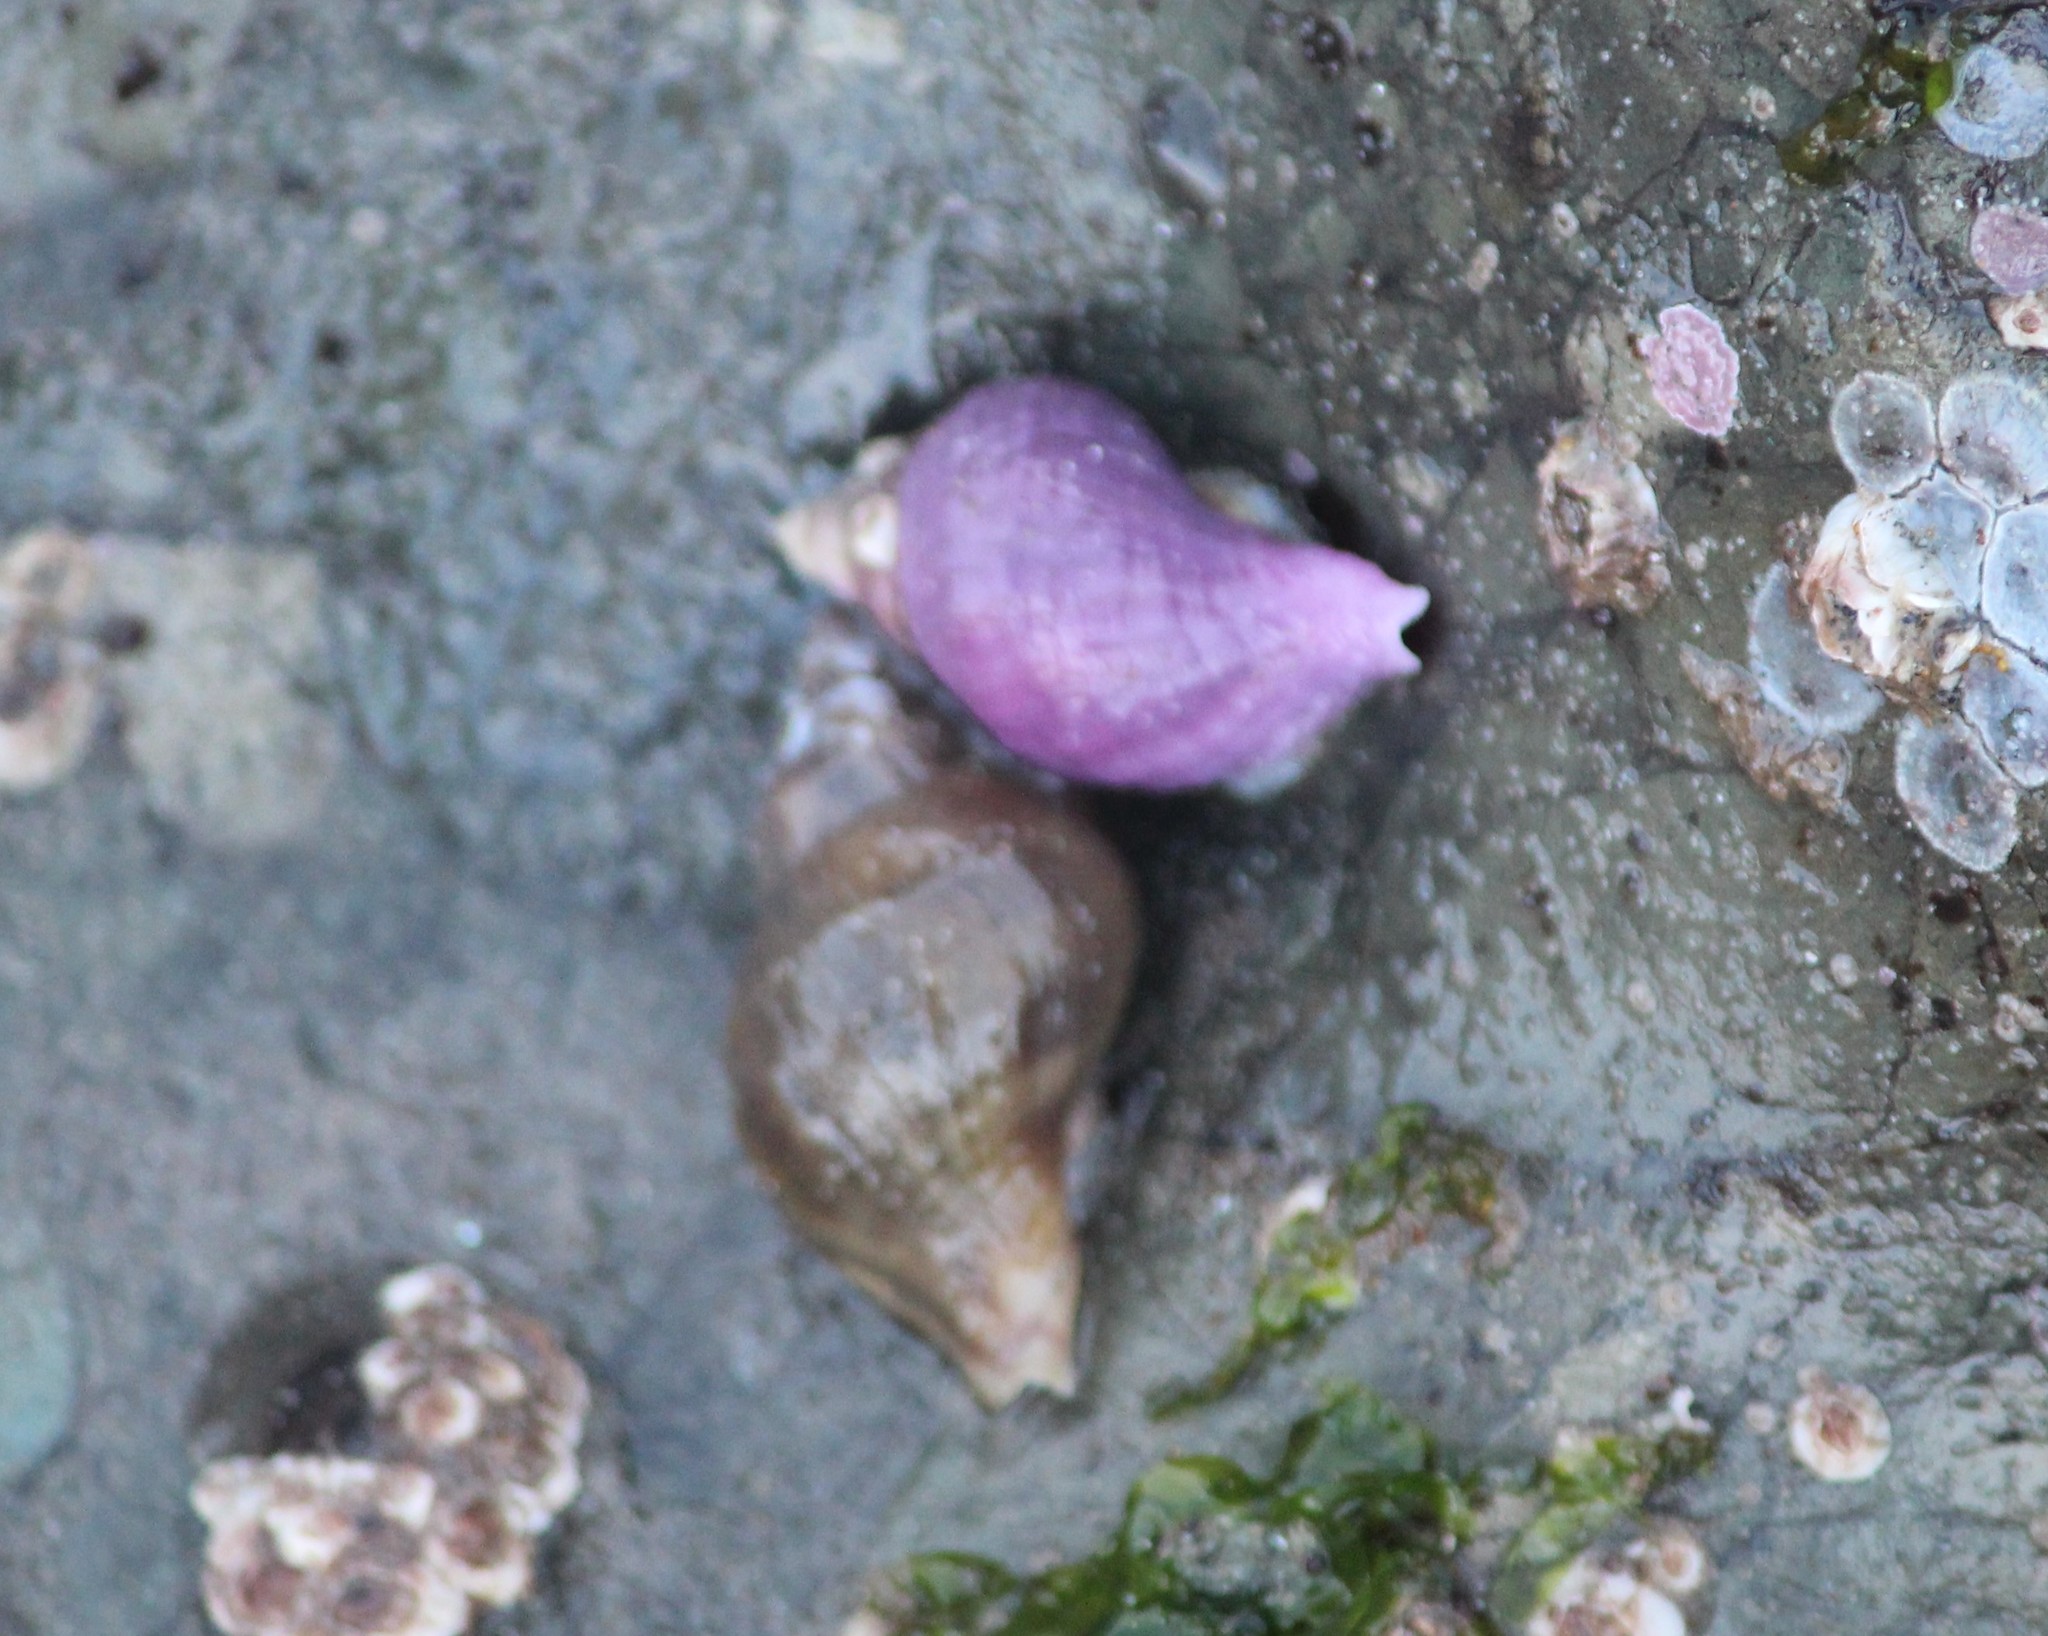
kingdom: Animalia
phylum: Mollusca
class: Gastropoda
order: Neogastropoda
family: Muricidae
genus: Nucella
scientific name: Nucella lamellosa
